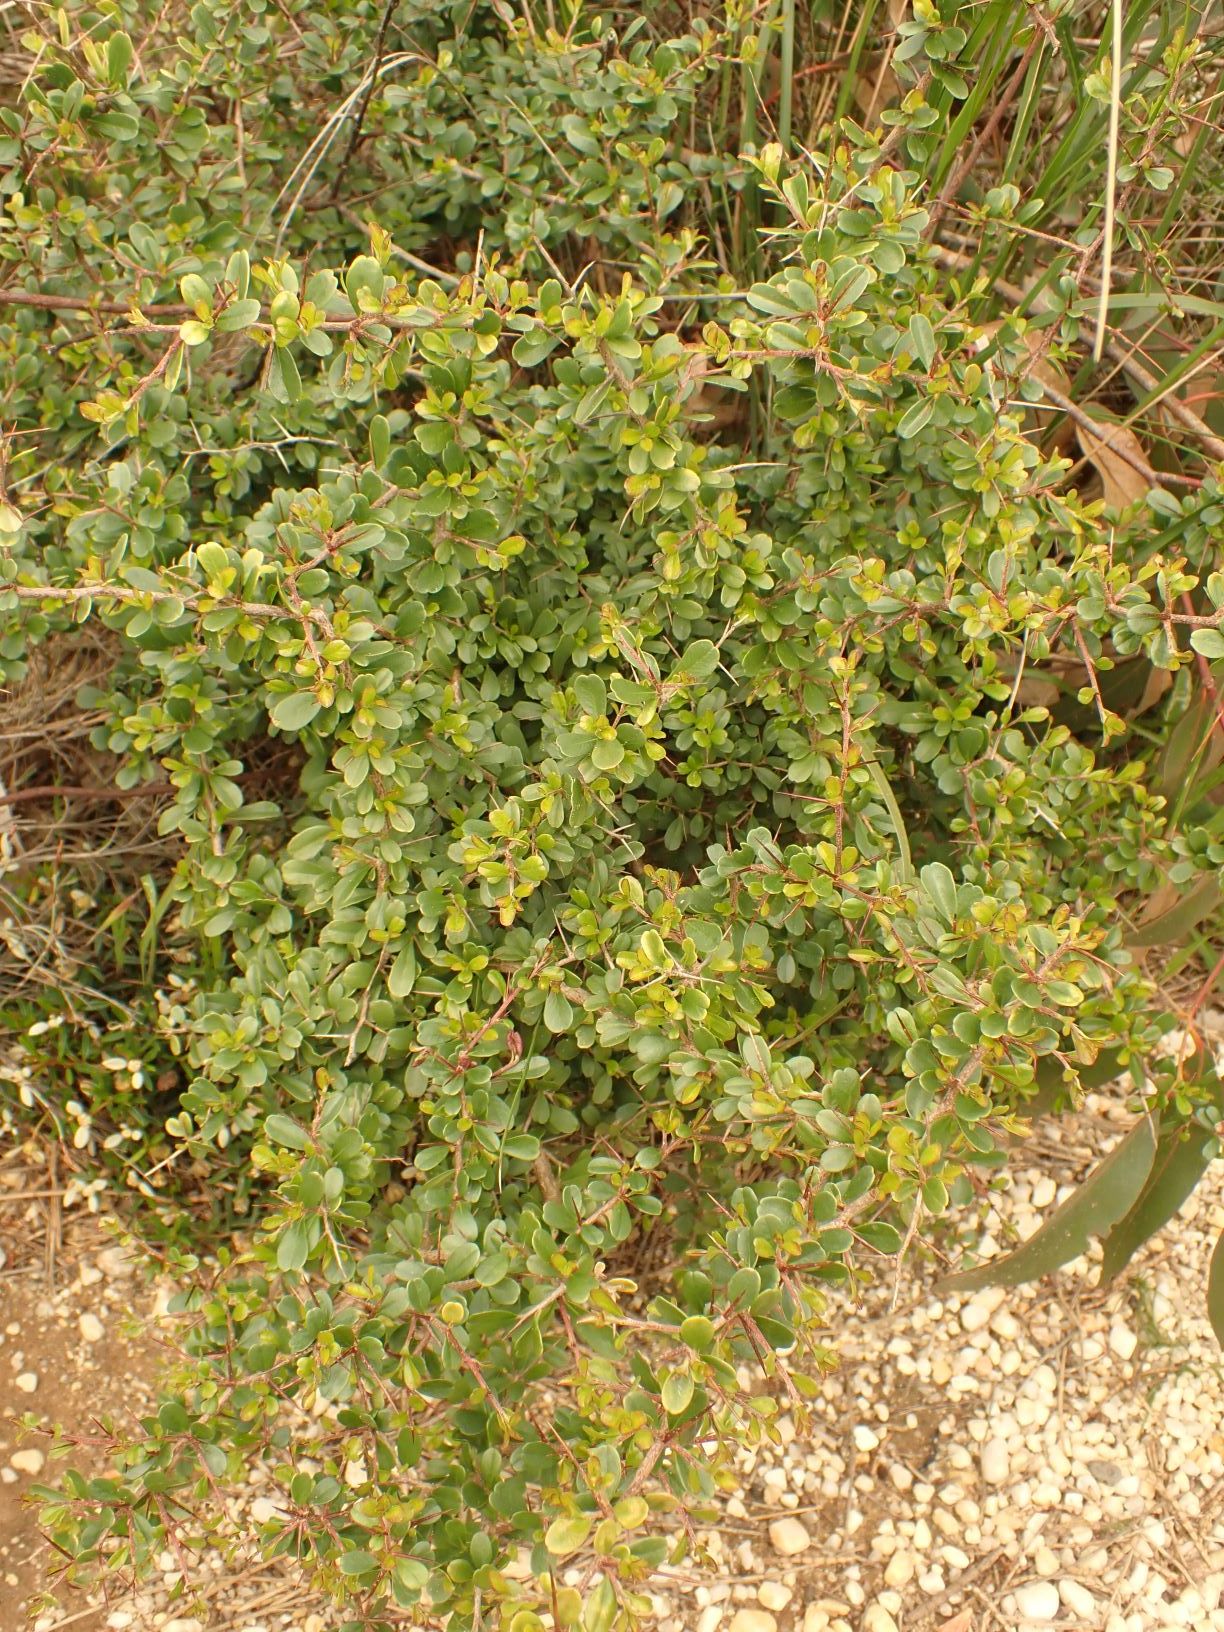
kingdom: Plantae
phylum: Tracheophyta
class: Magnoliopsida
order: Apiales
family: Pittosporaceae
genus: Bursaria
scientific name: Bursaria spinosa
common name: Australian blackthorn
